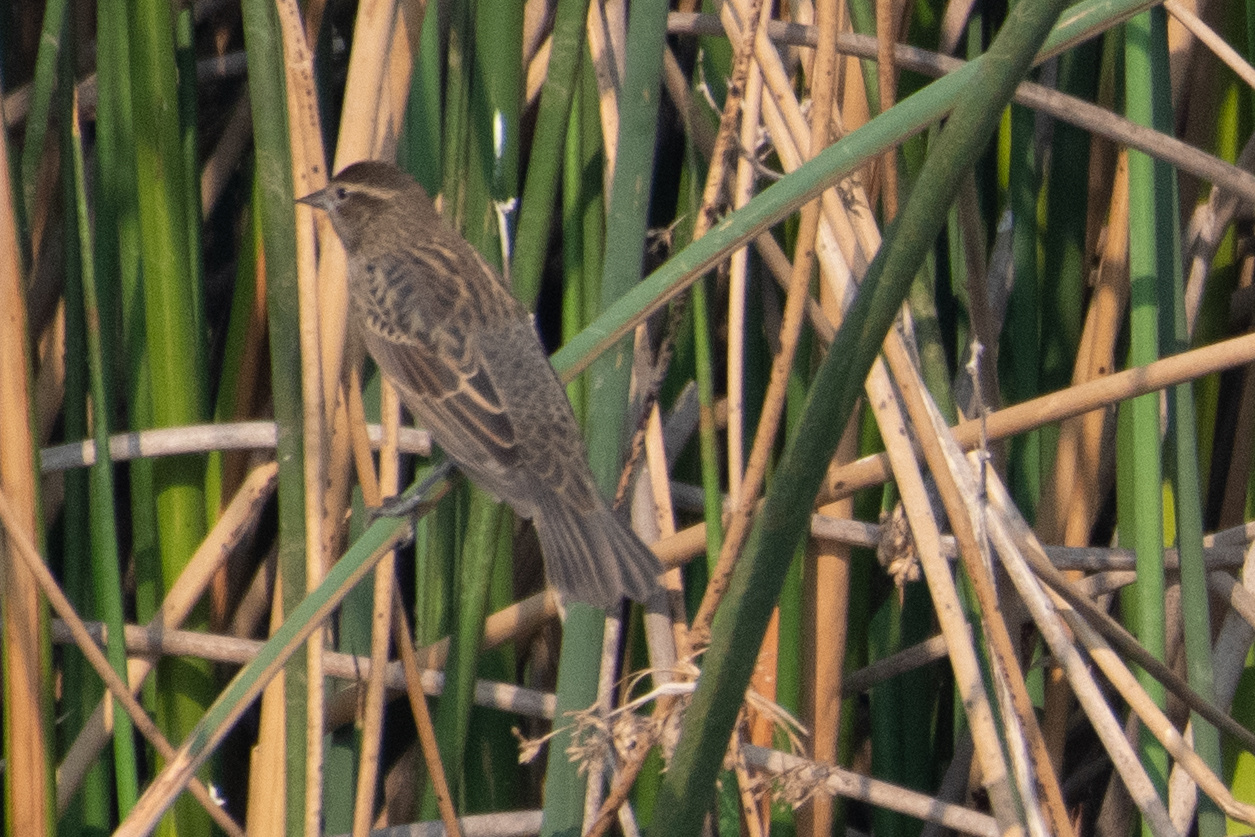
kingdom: Animalia
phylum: Chordata
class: Aves
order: Passeriformes
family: Icteridae
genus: Agelaius
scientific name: Agelaius phoeniceus
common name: Red-winged blackbird
